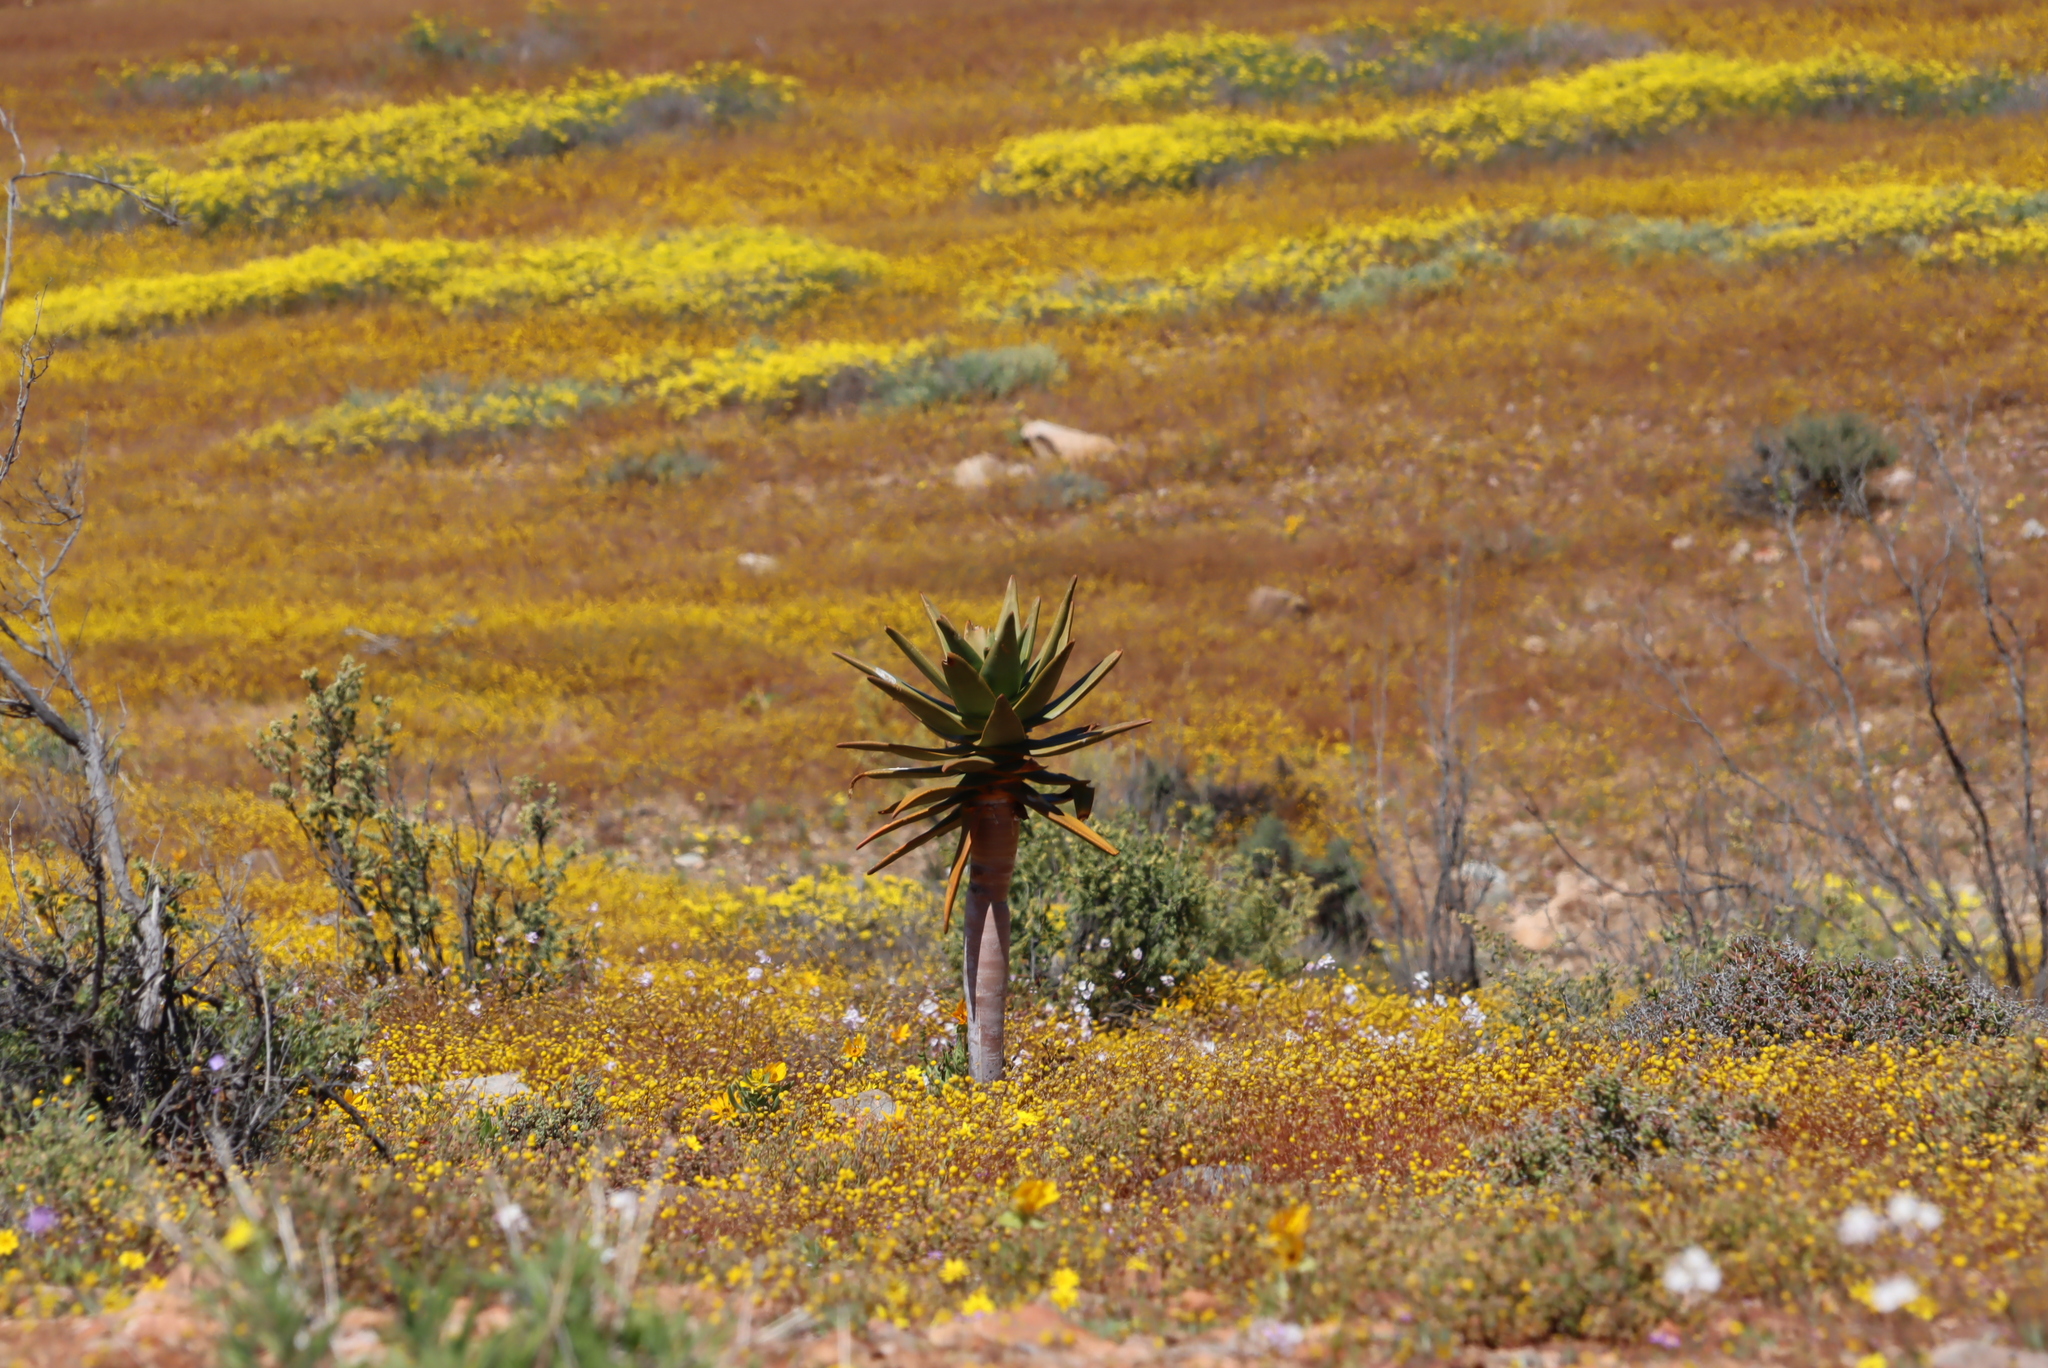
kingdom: Plantae
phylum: Tracheophyta
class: Liliopsida
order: Asparagales
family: Asphodelaceae
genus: Aloidendron
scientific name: Aloidendron dichotomum
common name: Quiver tree
